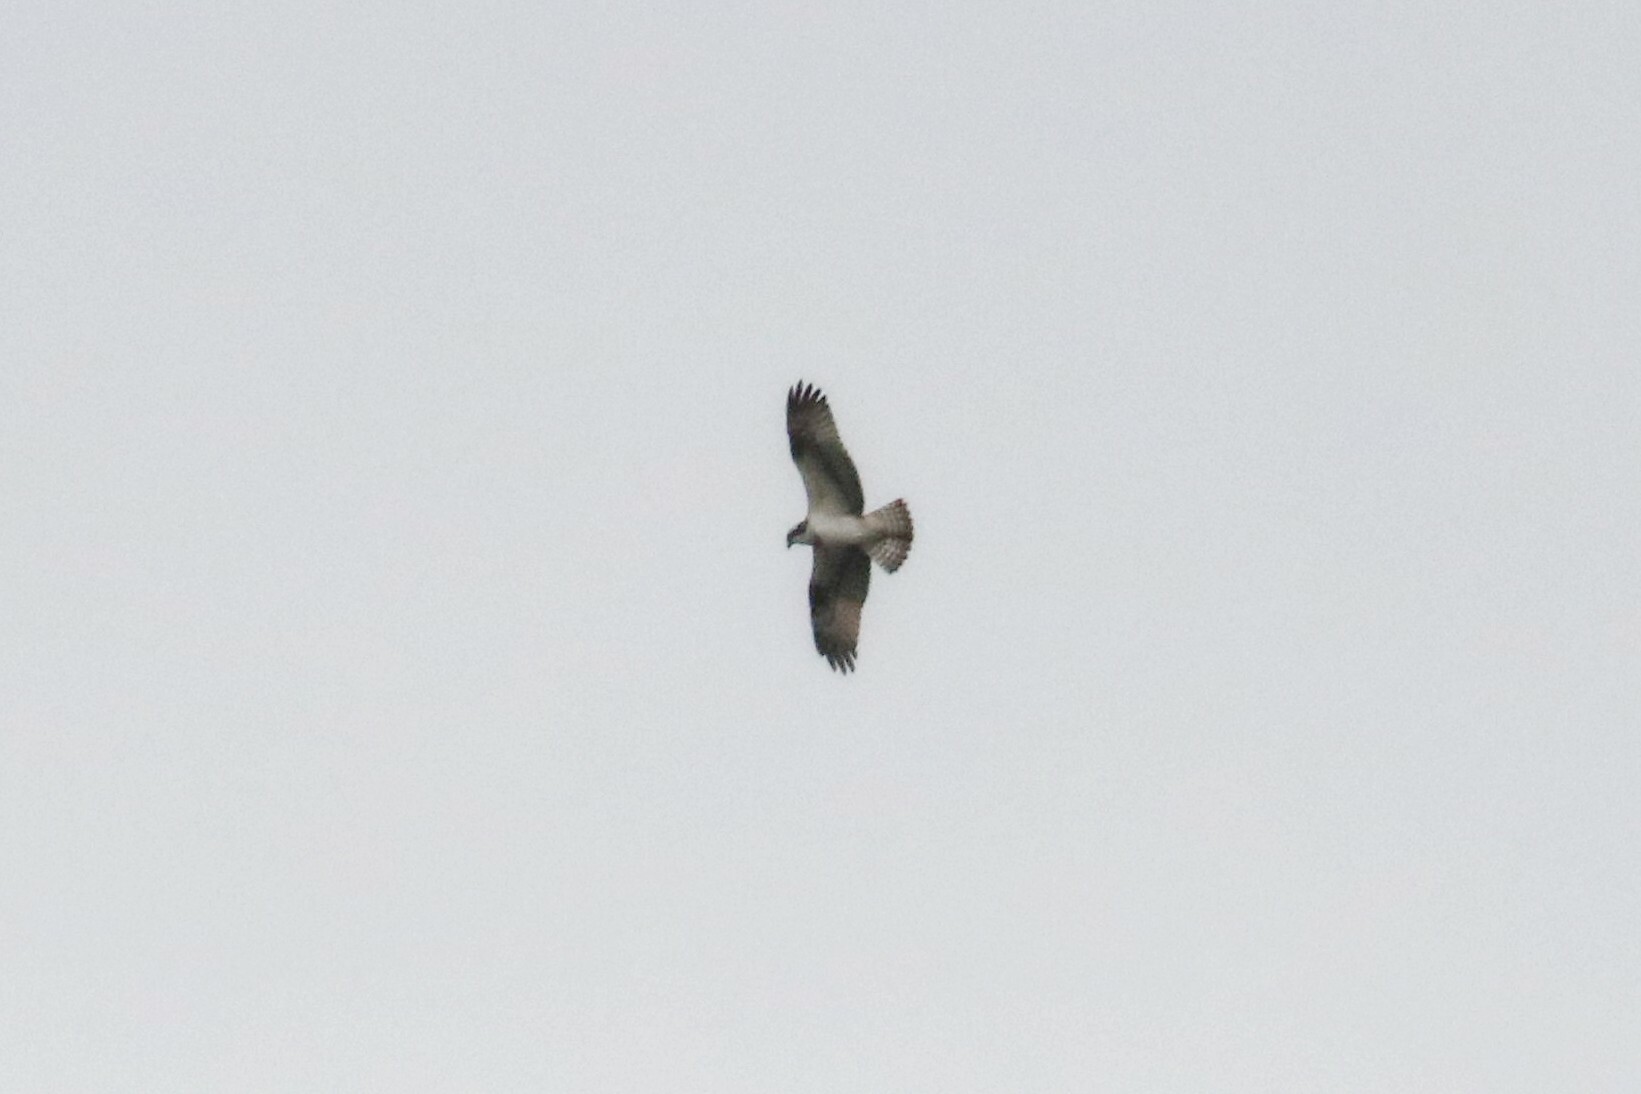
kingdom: Animalia
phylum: Chordata
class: Aves
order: Accipitriformes
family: Pandionidae
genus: Pandion
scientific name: Pandion haliaetus
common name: Osprey
